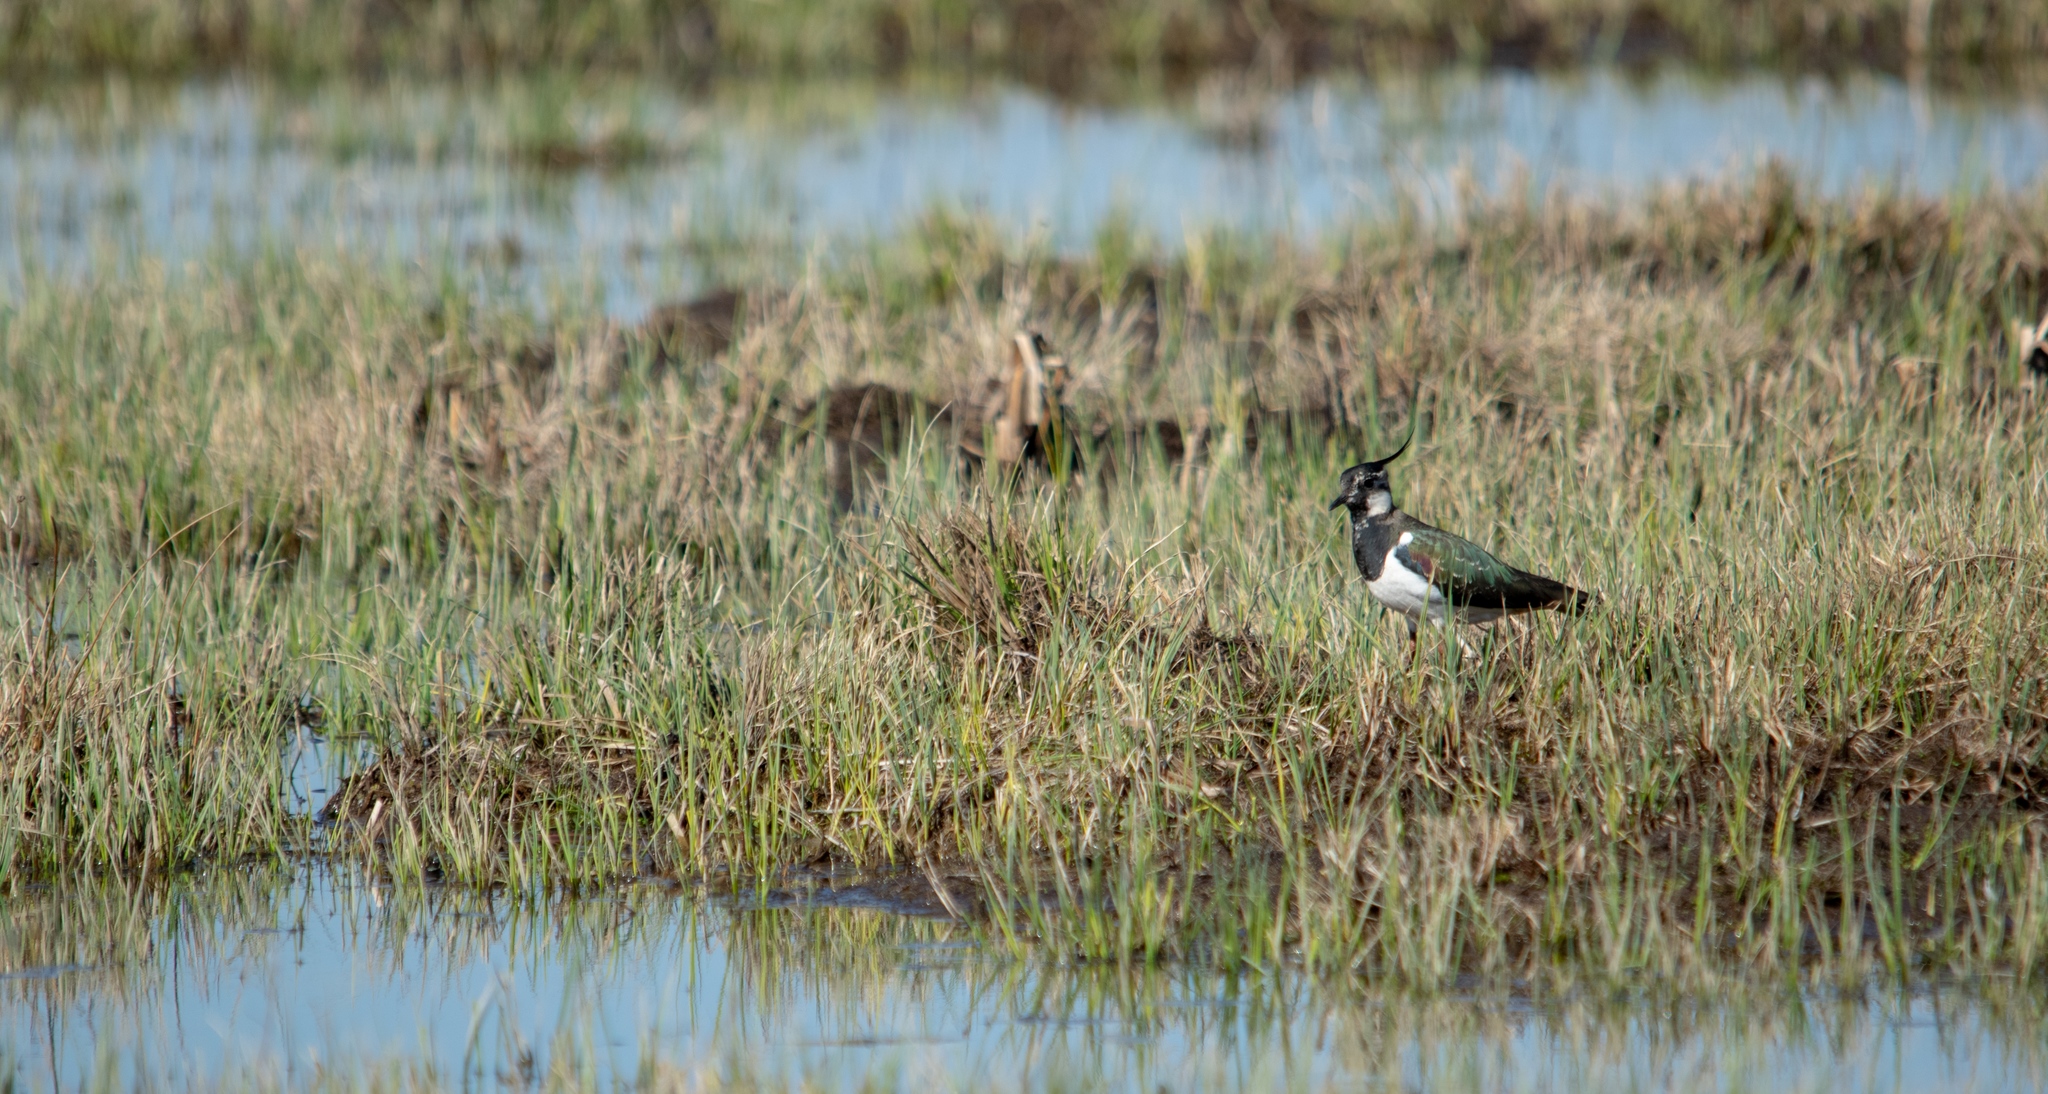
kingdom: Animalia
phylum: Chordata
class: Aves
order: Charadriiformes
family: Charadriidae
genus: Vanellus
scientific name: Vanellus vanellus
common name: Northern lapwing
